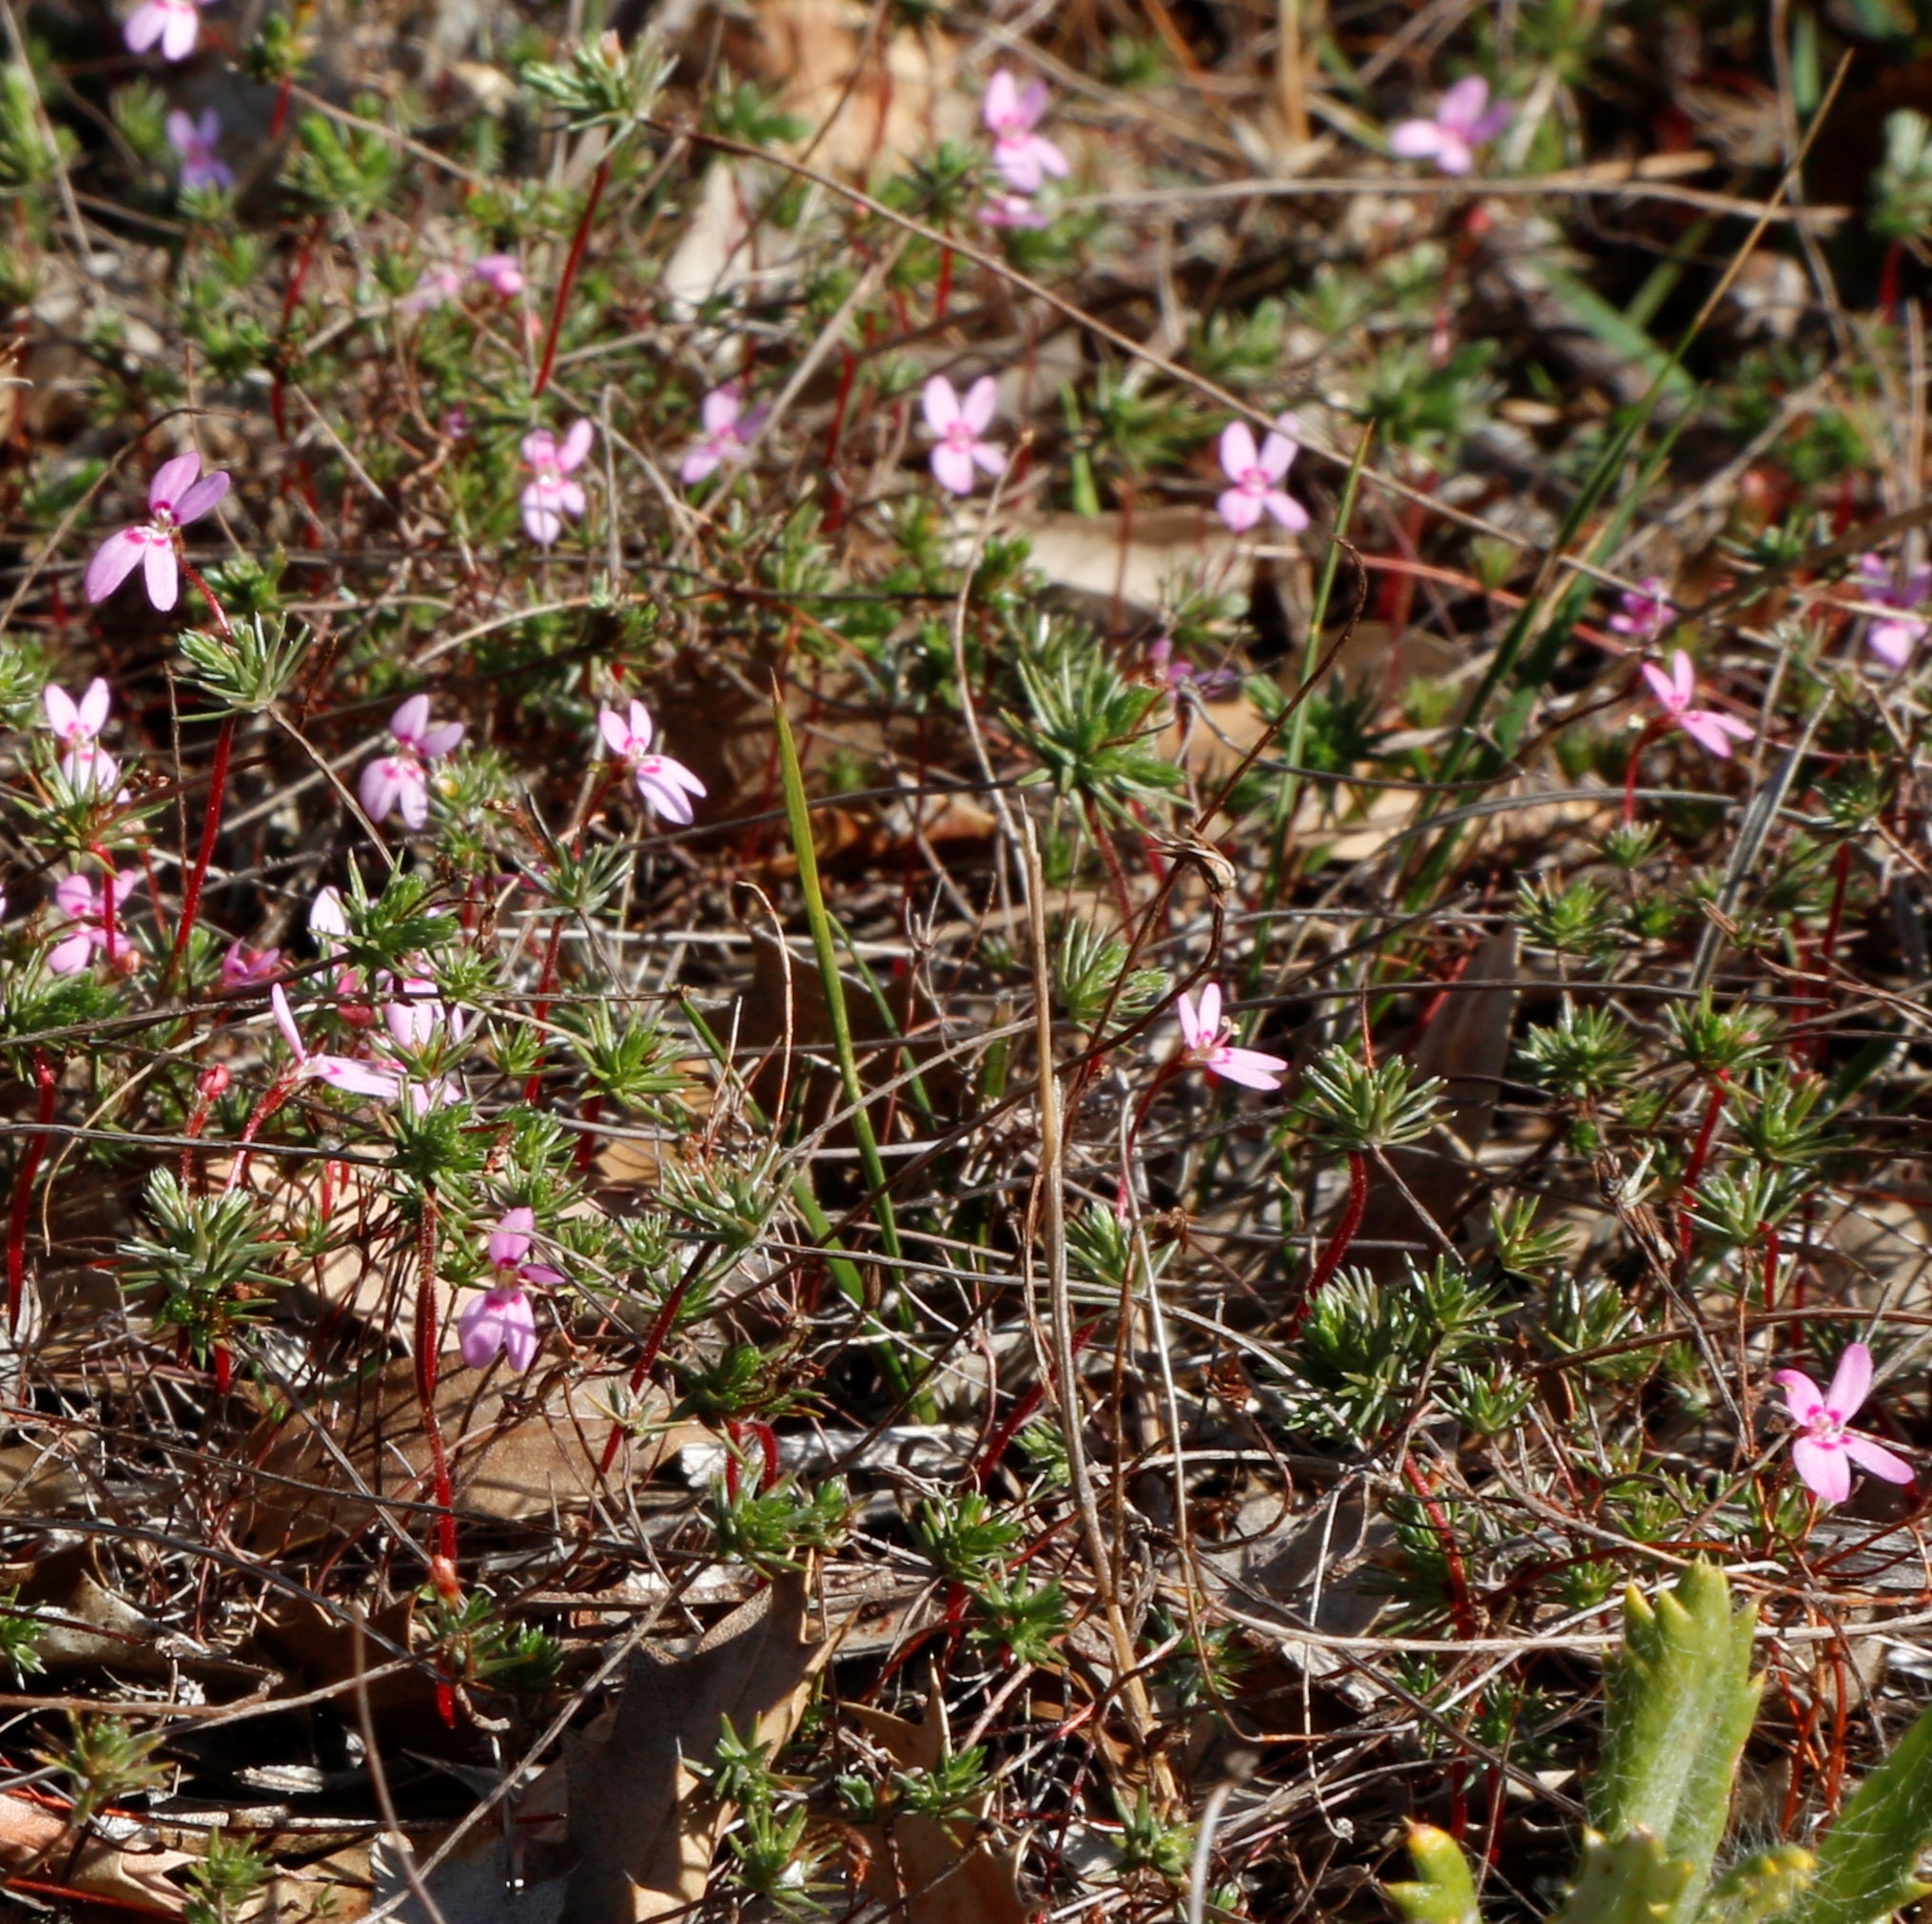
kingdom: Plantae
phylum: Tracheophyta
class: Magnoliopsida
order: Asterales
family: Stylidiaceae
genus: Stylidium
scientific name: Stylidium repens
